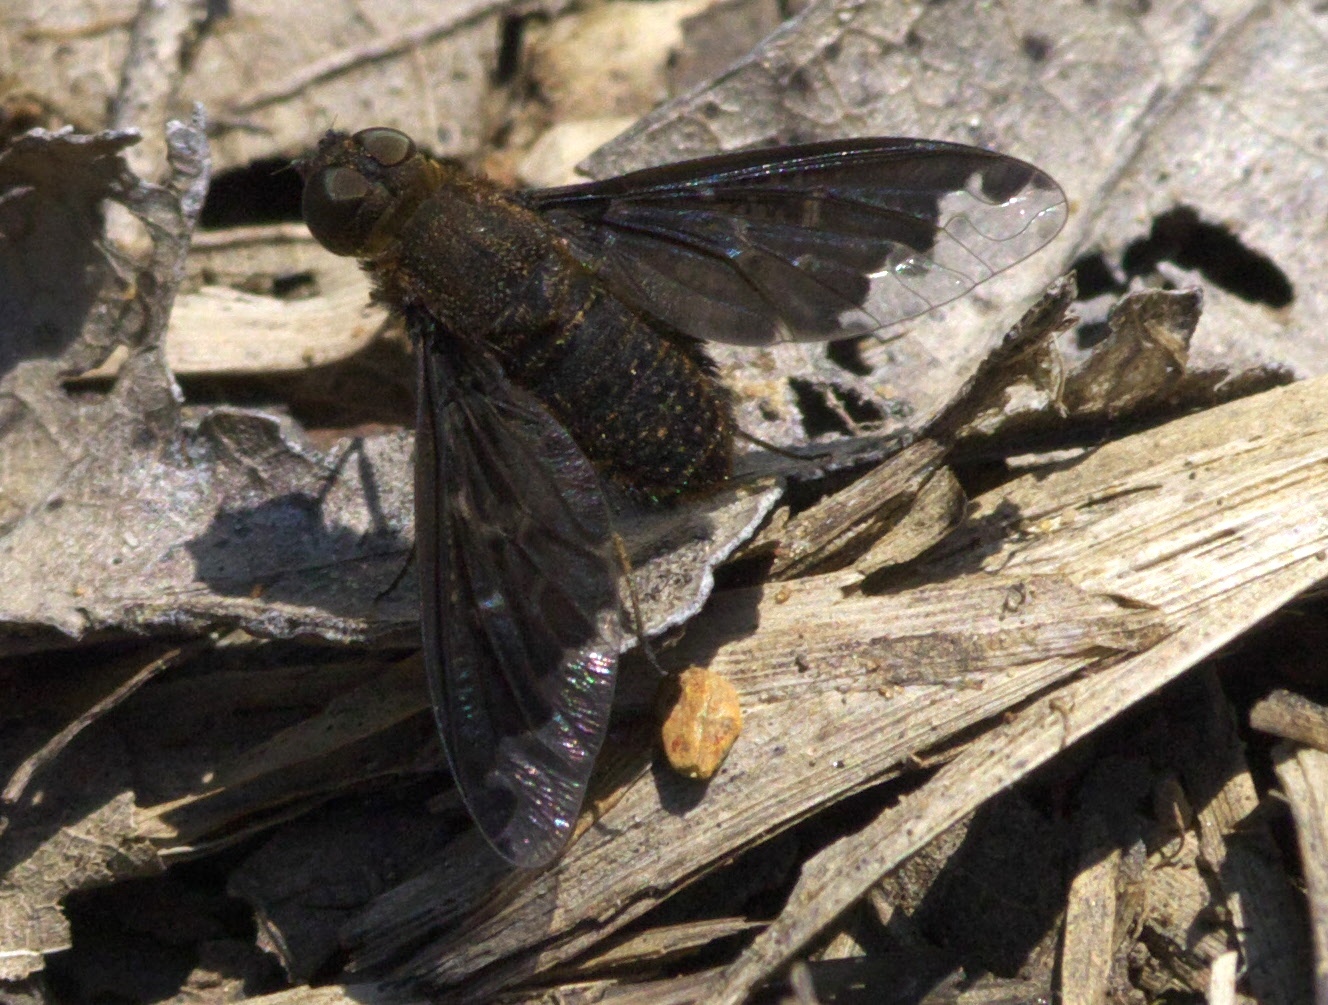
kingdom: Animalia
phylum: Arthropoda
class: Insecta
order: Diptera
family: Bombyliidae
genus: Hemipenthes
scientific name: Hemipenthes sinuosus
